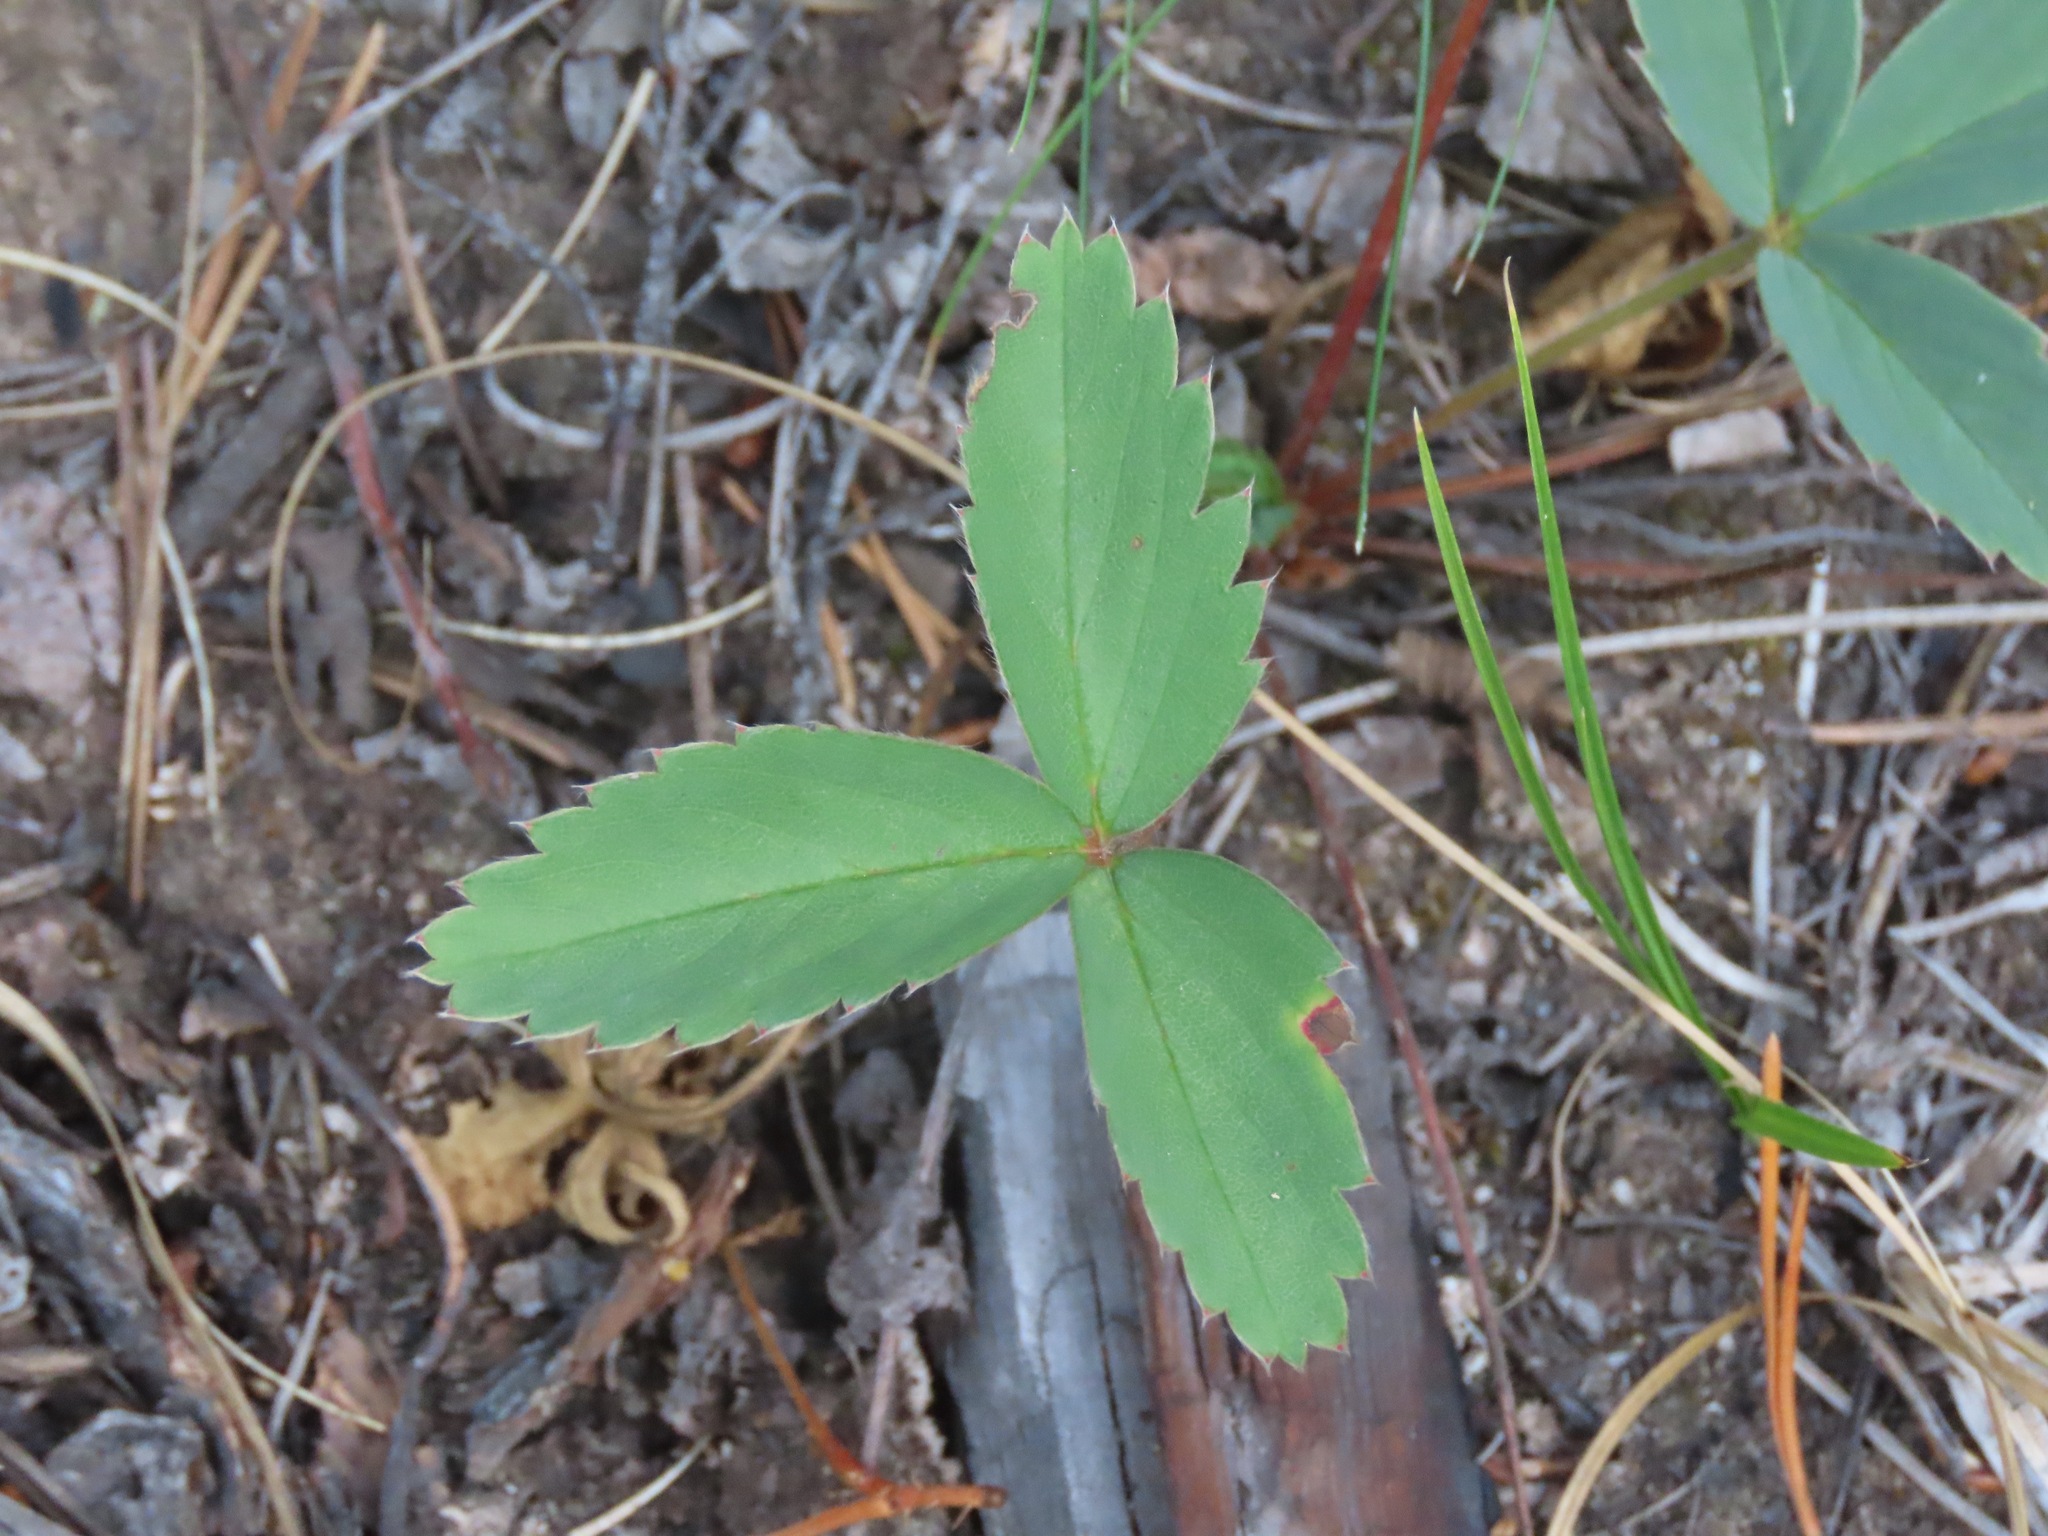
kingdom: Plantae
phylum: Tracheophyta
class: Magnoliopsida
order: Rosales
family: Rosaceae
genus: Fragaria
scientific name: Fragaria virginiana
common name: Thickleaved wild strawberry
